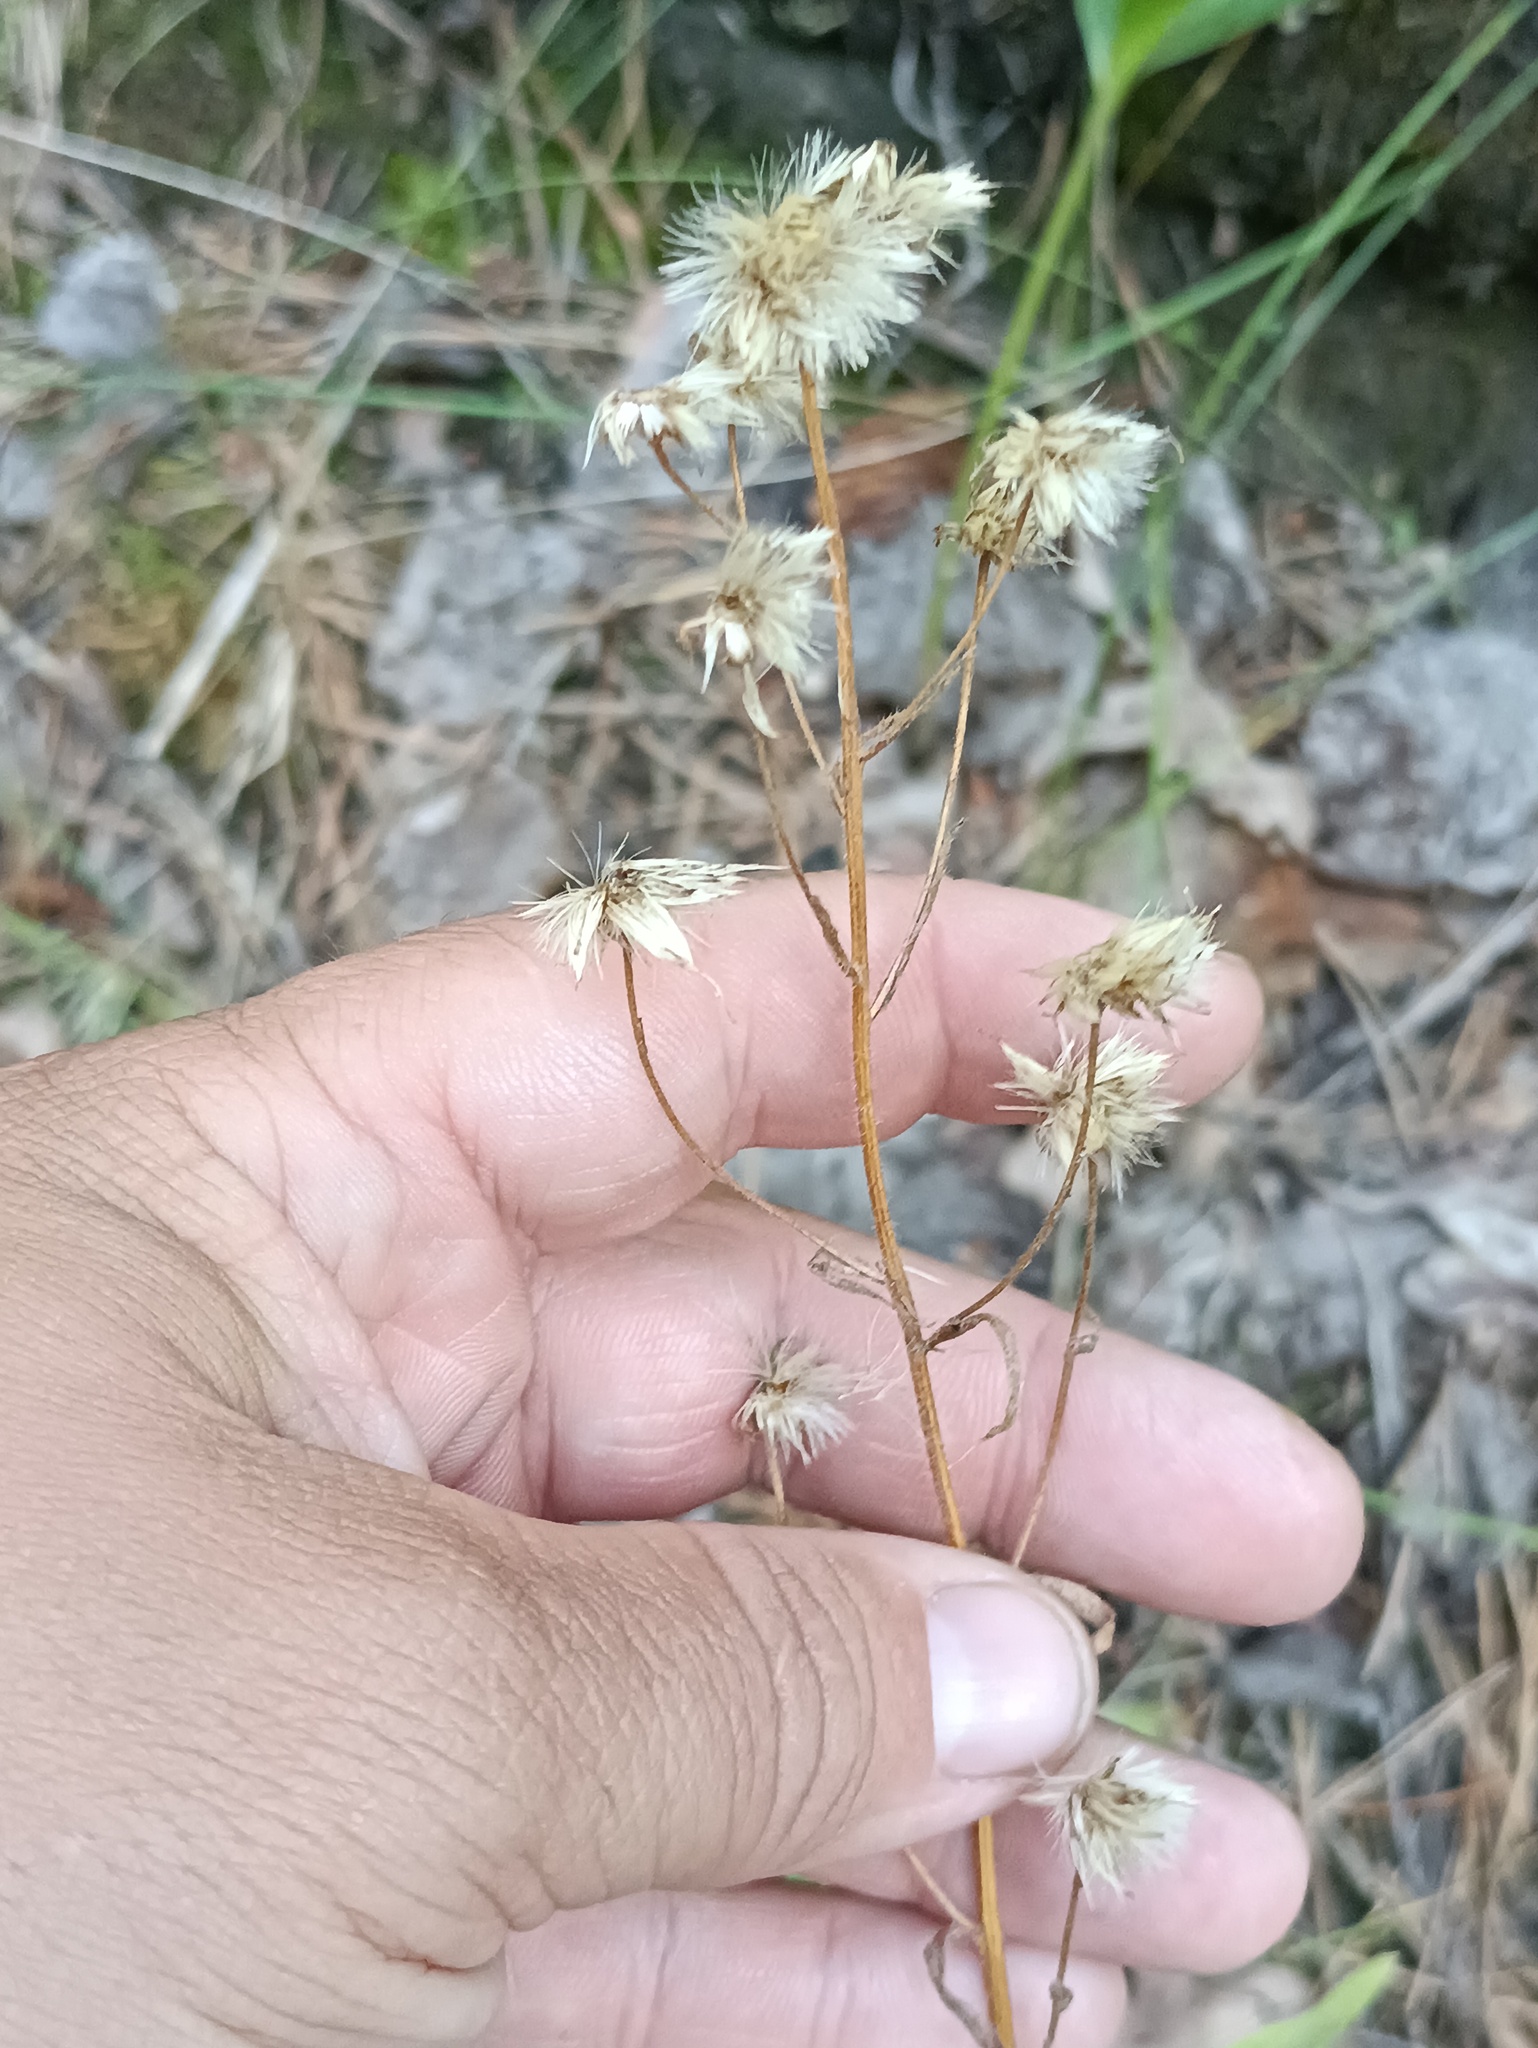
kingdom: Plantae
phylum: Tracheophyta
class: Magnoliopsida
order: Asterales
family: Asteraceae
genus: Erigeron
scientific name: Erigeron acris
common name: Blue fleabane
